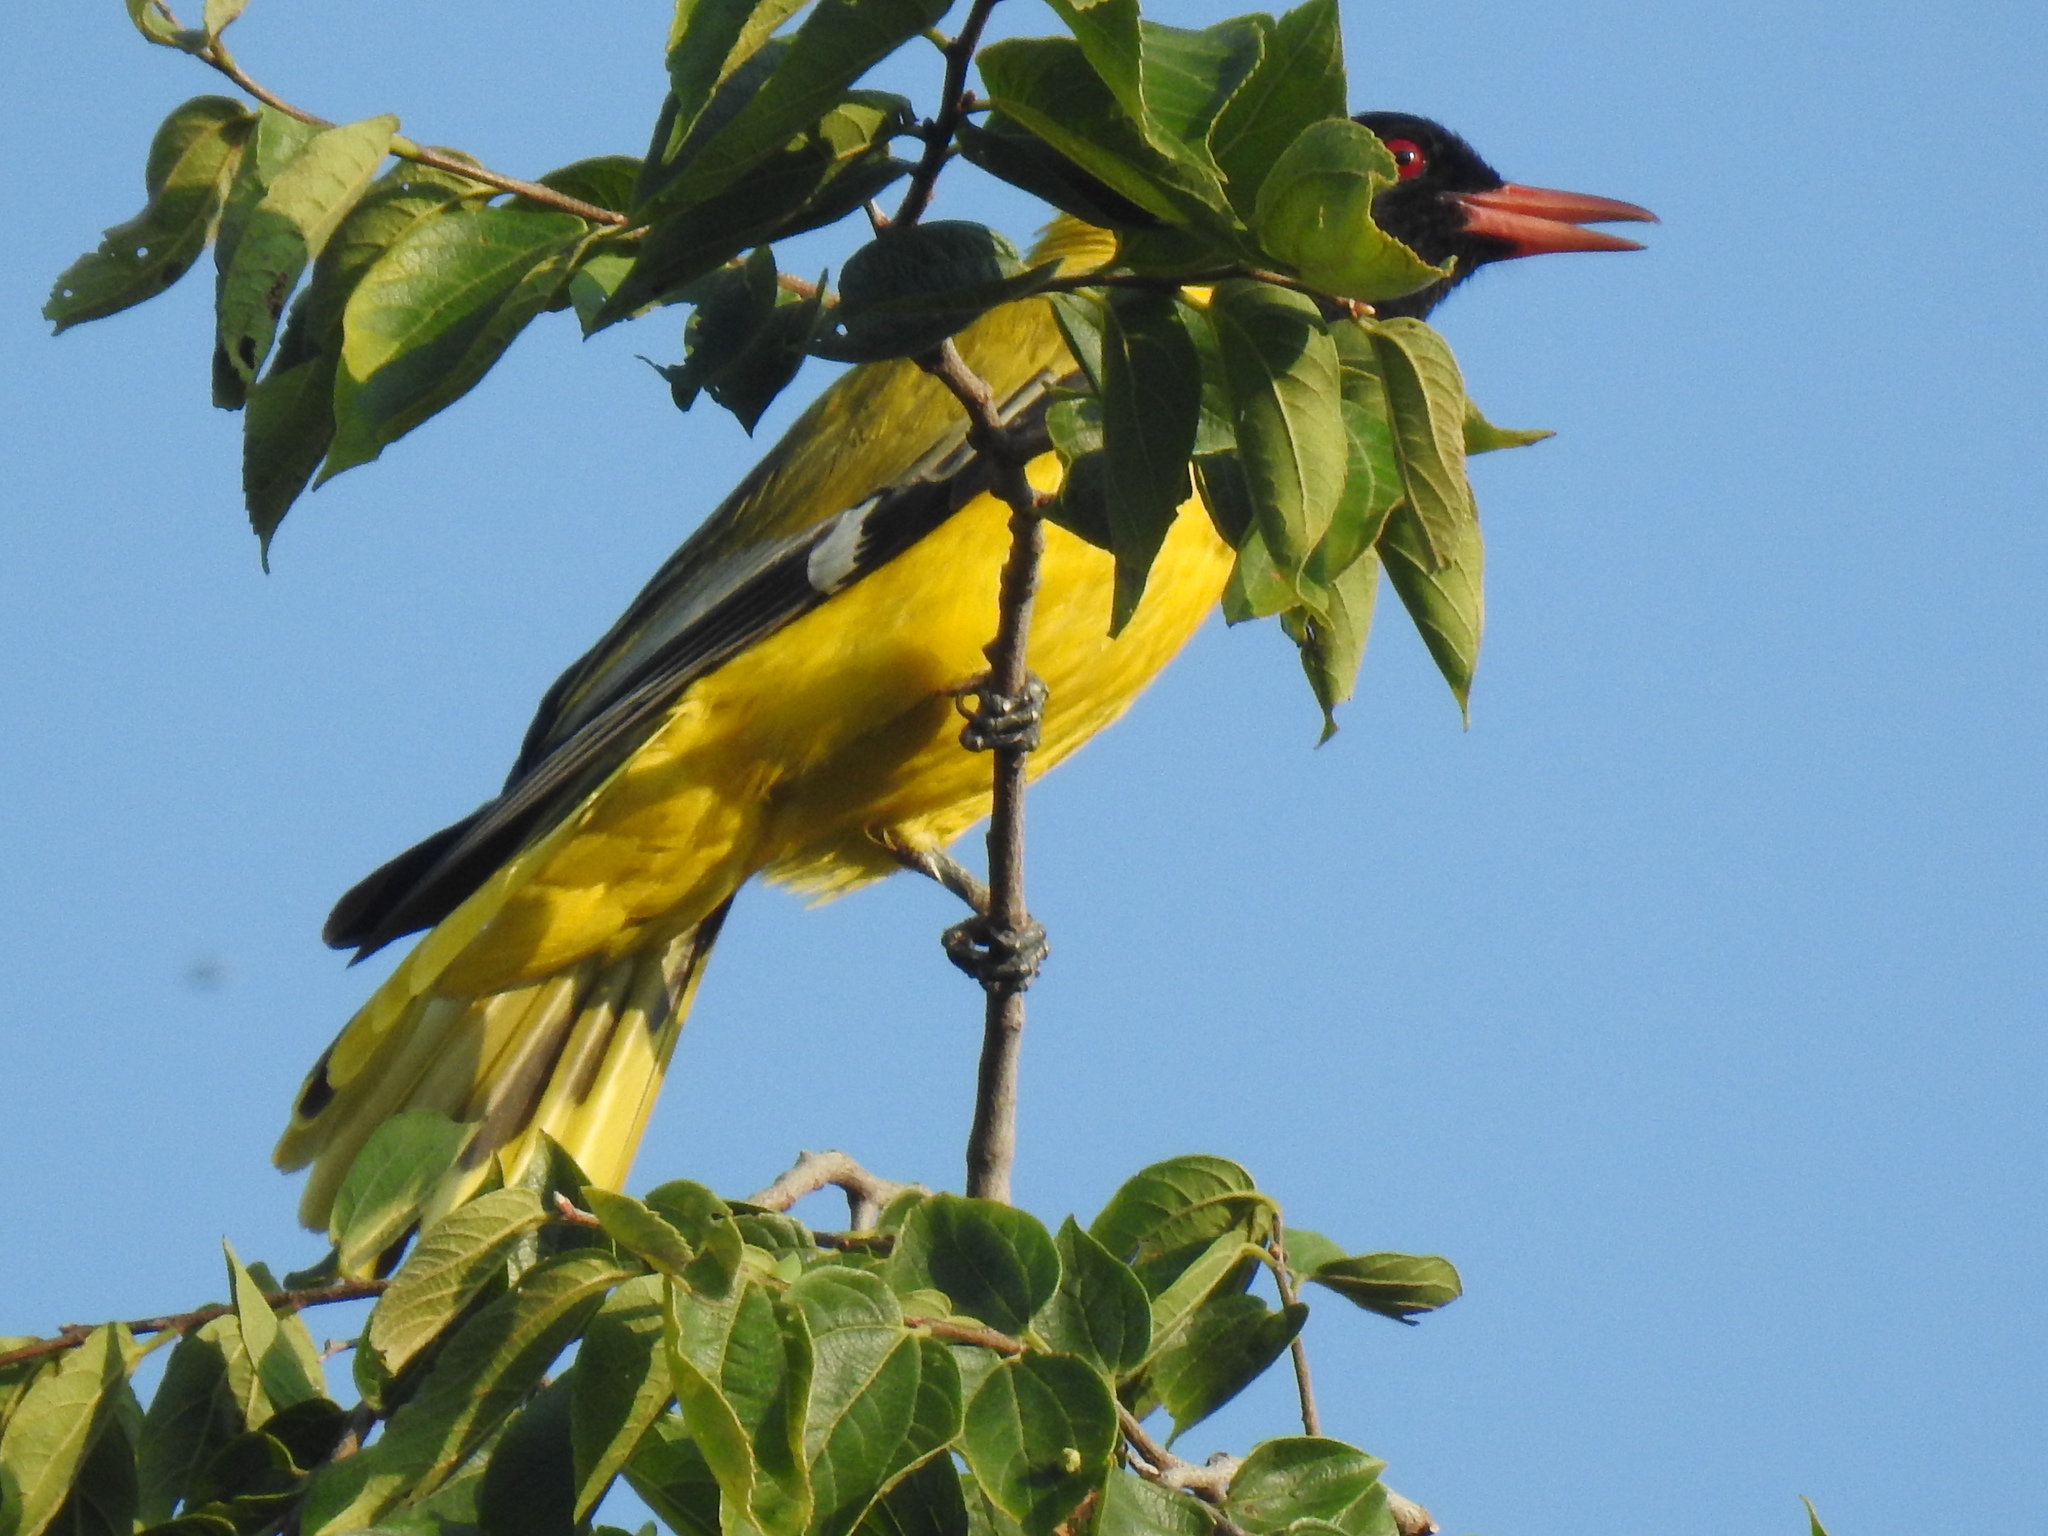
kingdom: Animalia
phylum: Chordata
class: Aves
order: Passeriformes
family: Oriolidae
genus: Oriolus
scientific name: Oriolus larvatus
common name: Black-headed oriole
